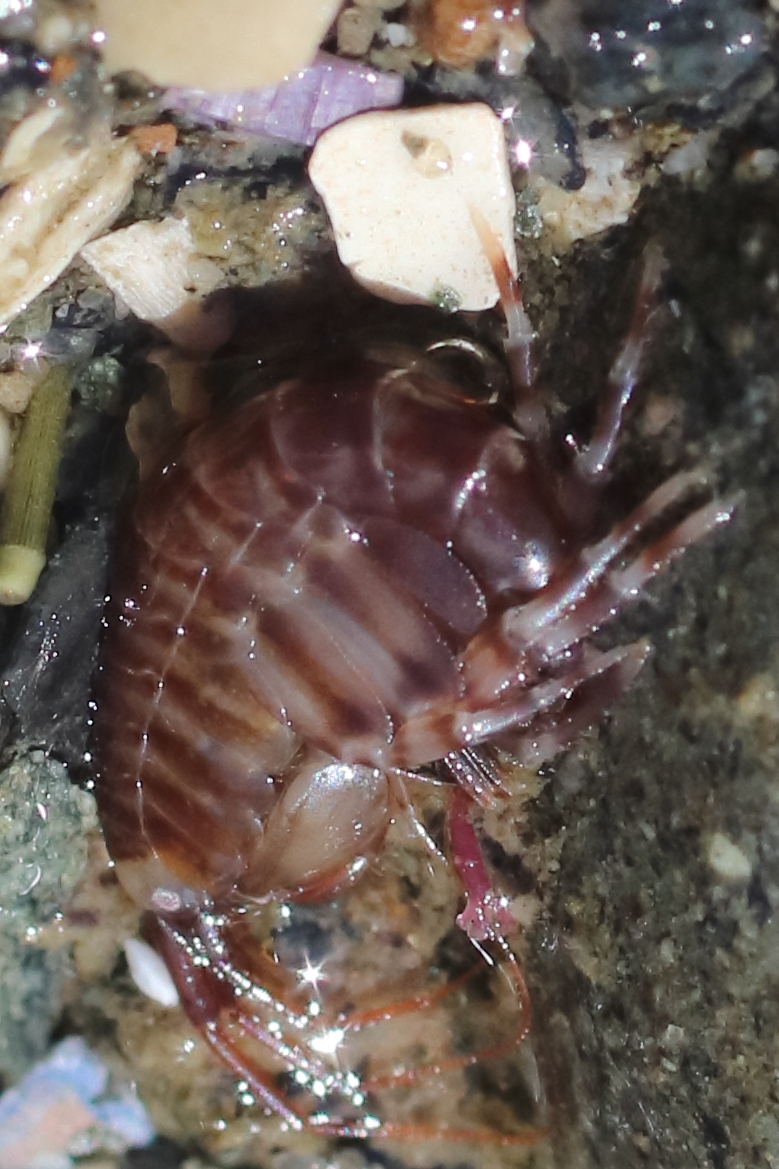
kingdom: Animalia
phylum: Arthropoda
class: Malacostraca
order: Amphipoda
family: Melitidae
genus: Megamoera
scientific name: Megamoera subtener
